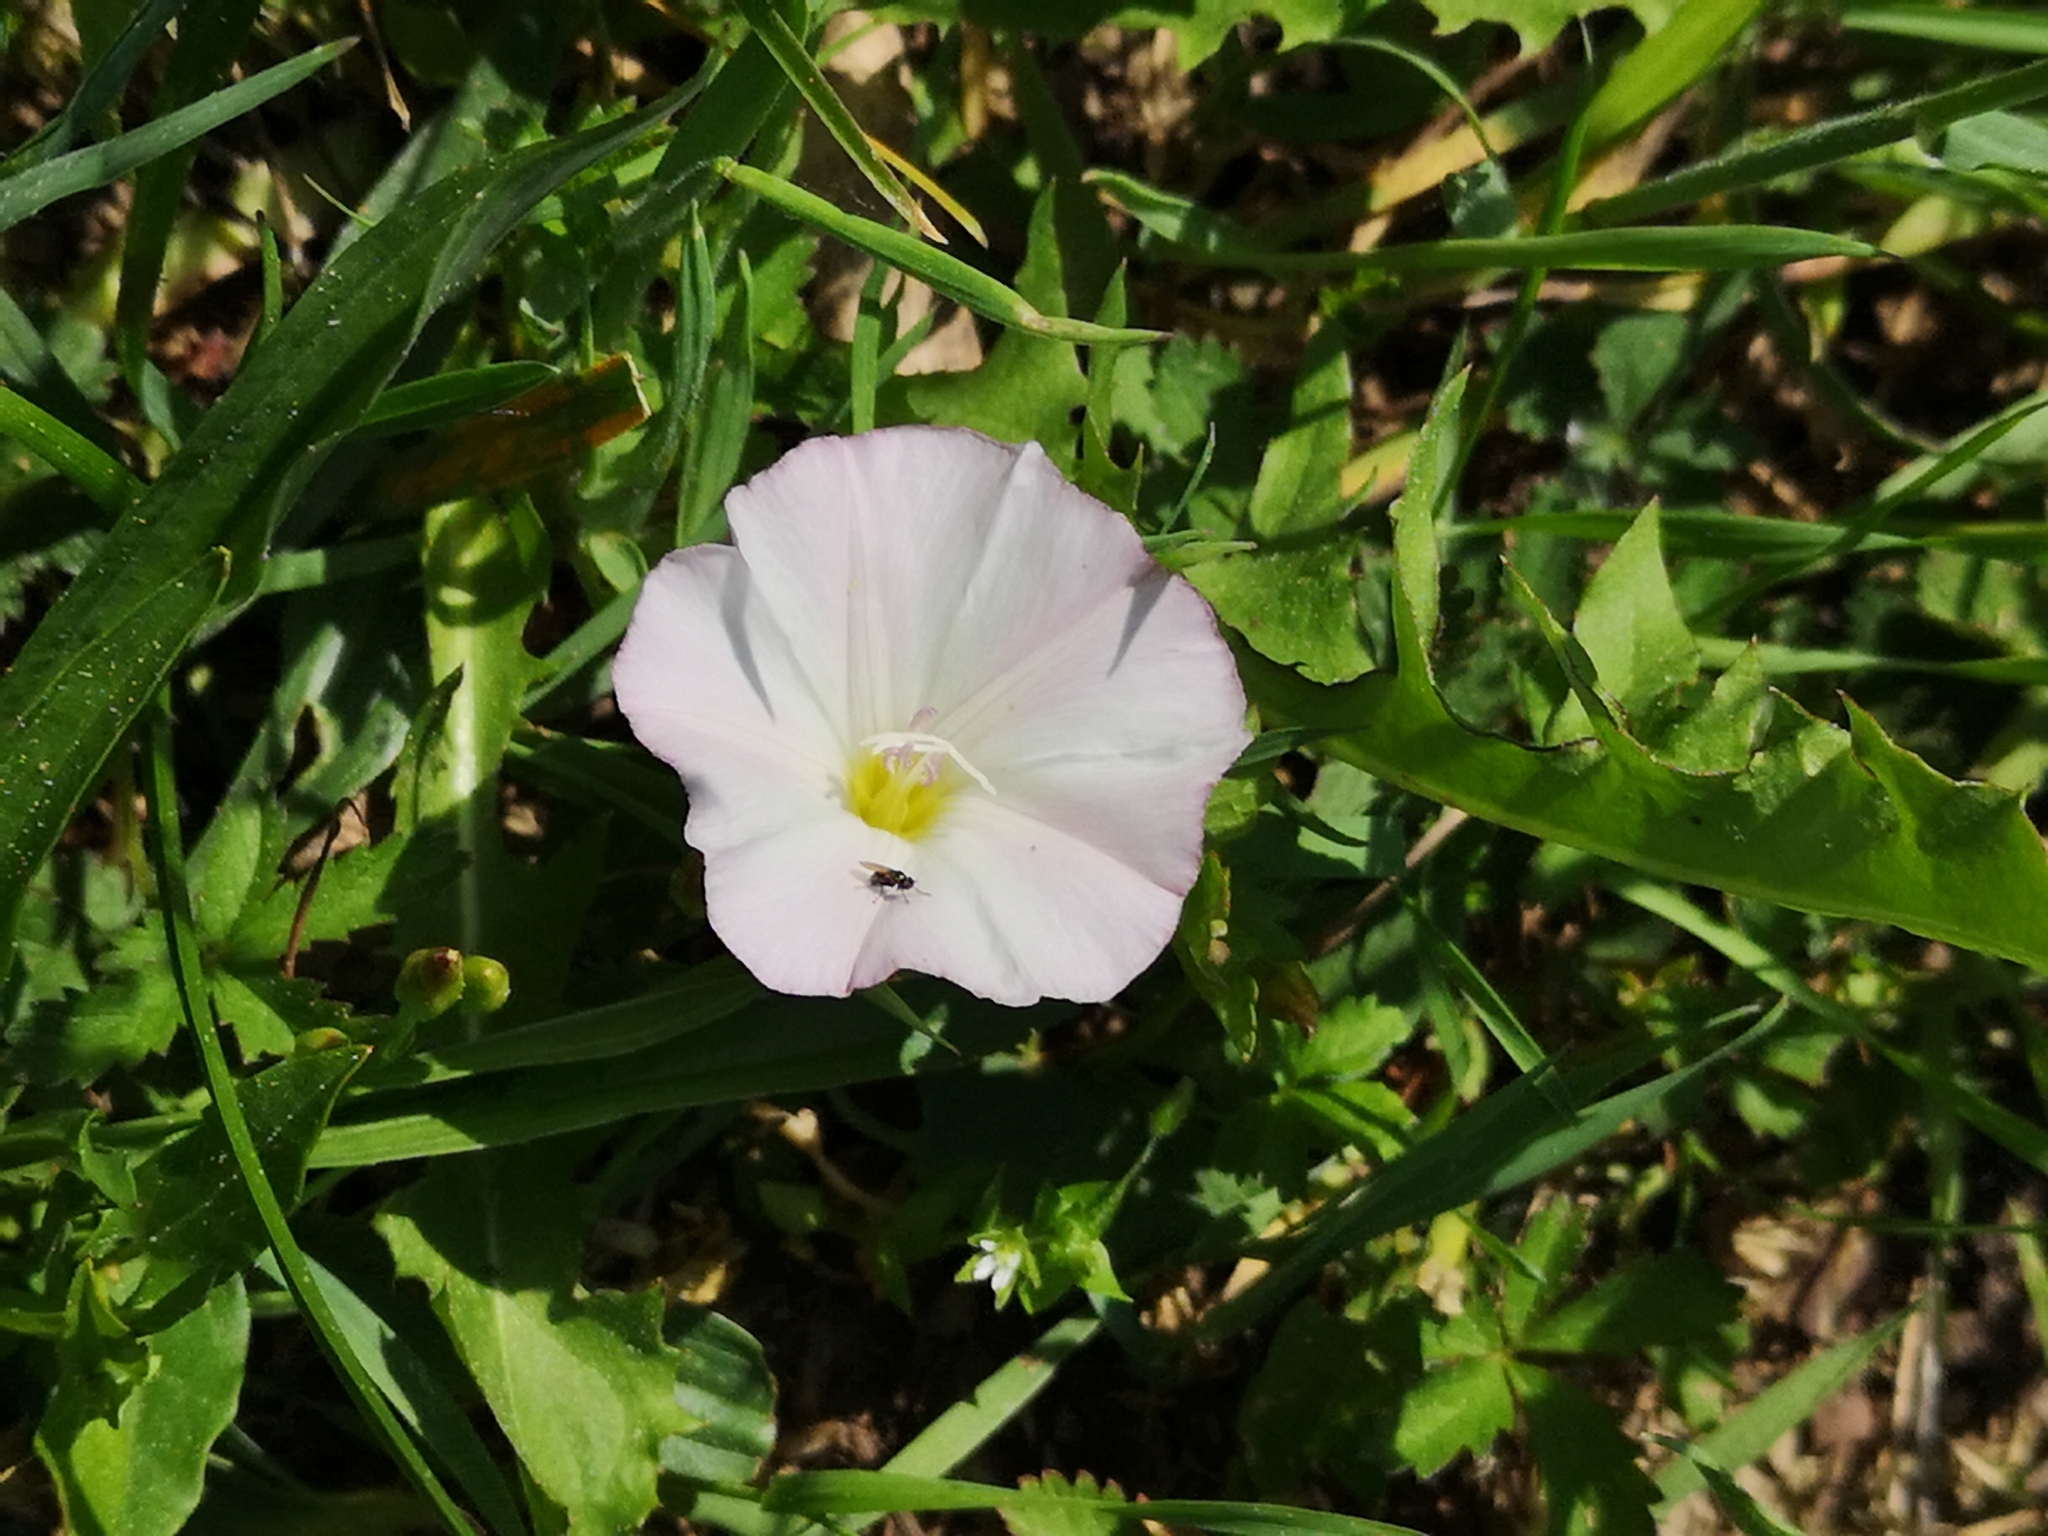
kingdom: Plantae
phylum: Tracheophyta
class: Magnoliopsida
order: Solanales
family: Convolvulaceae
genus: Convolvulus
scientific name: Convolvulus arvensis
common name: Field bindweed
